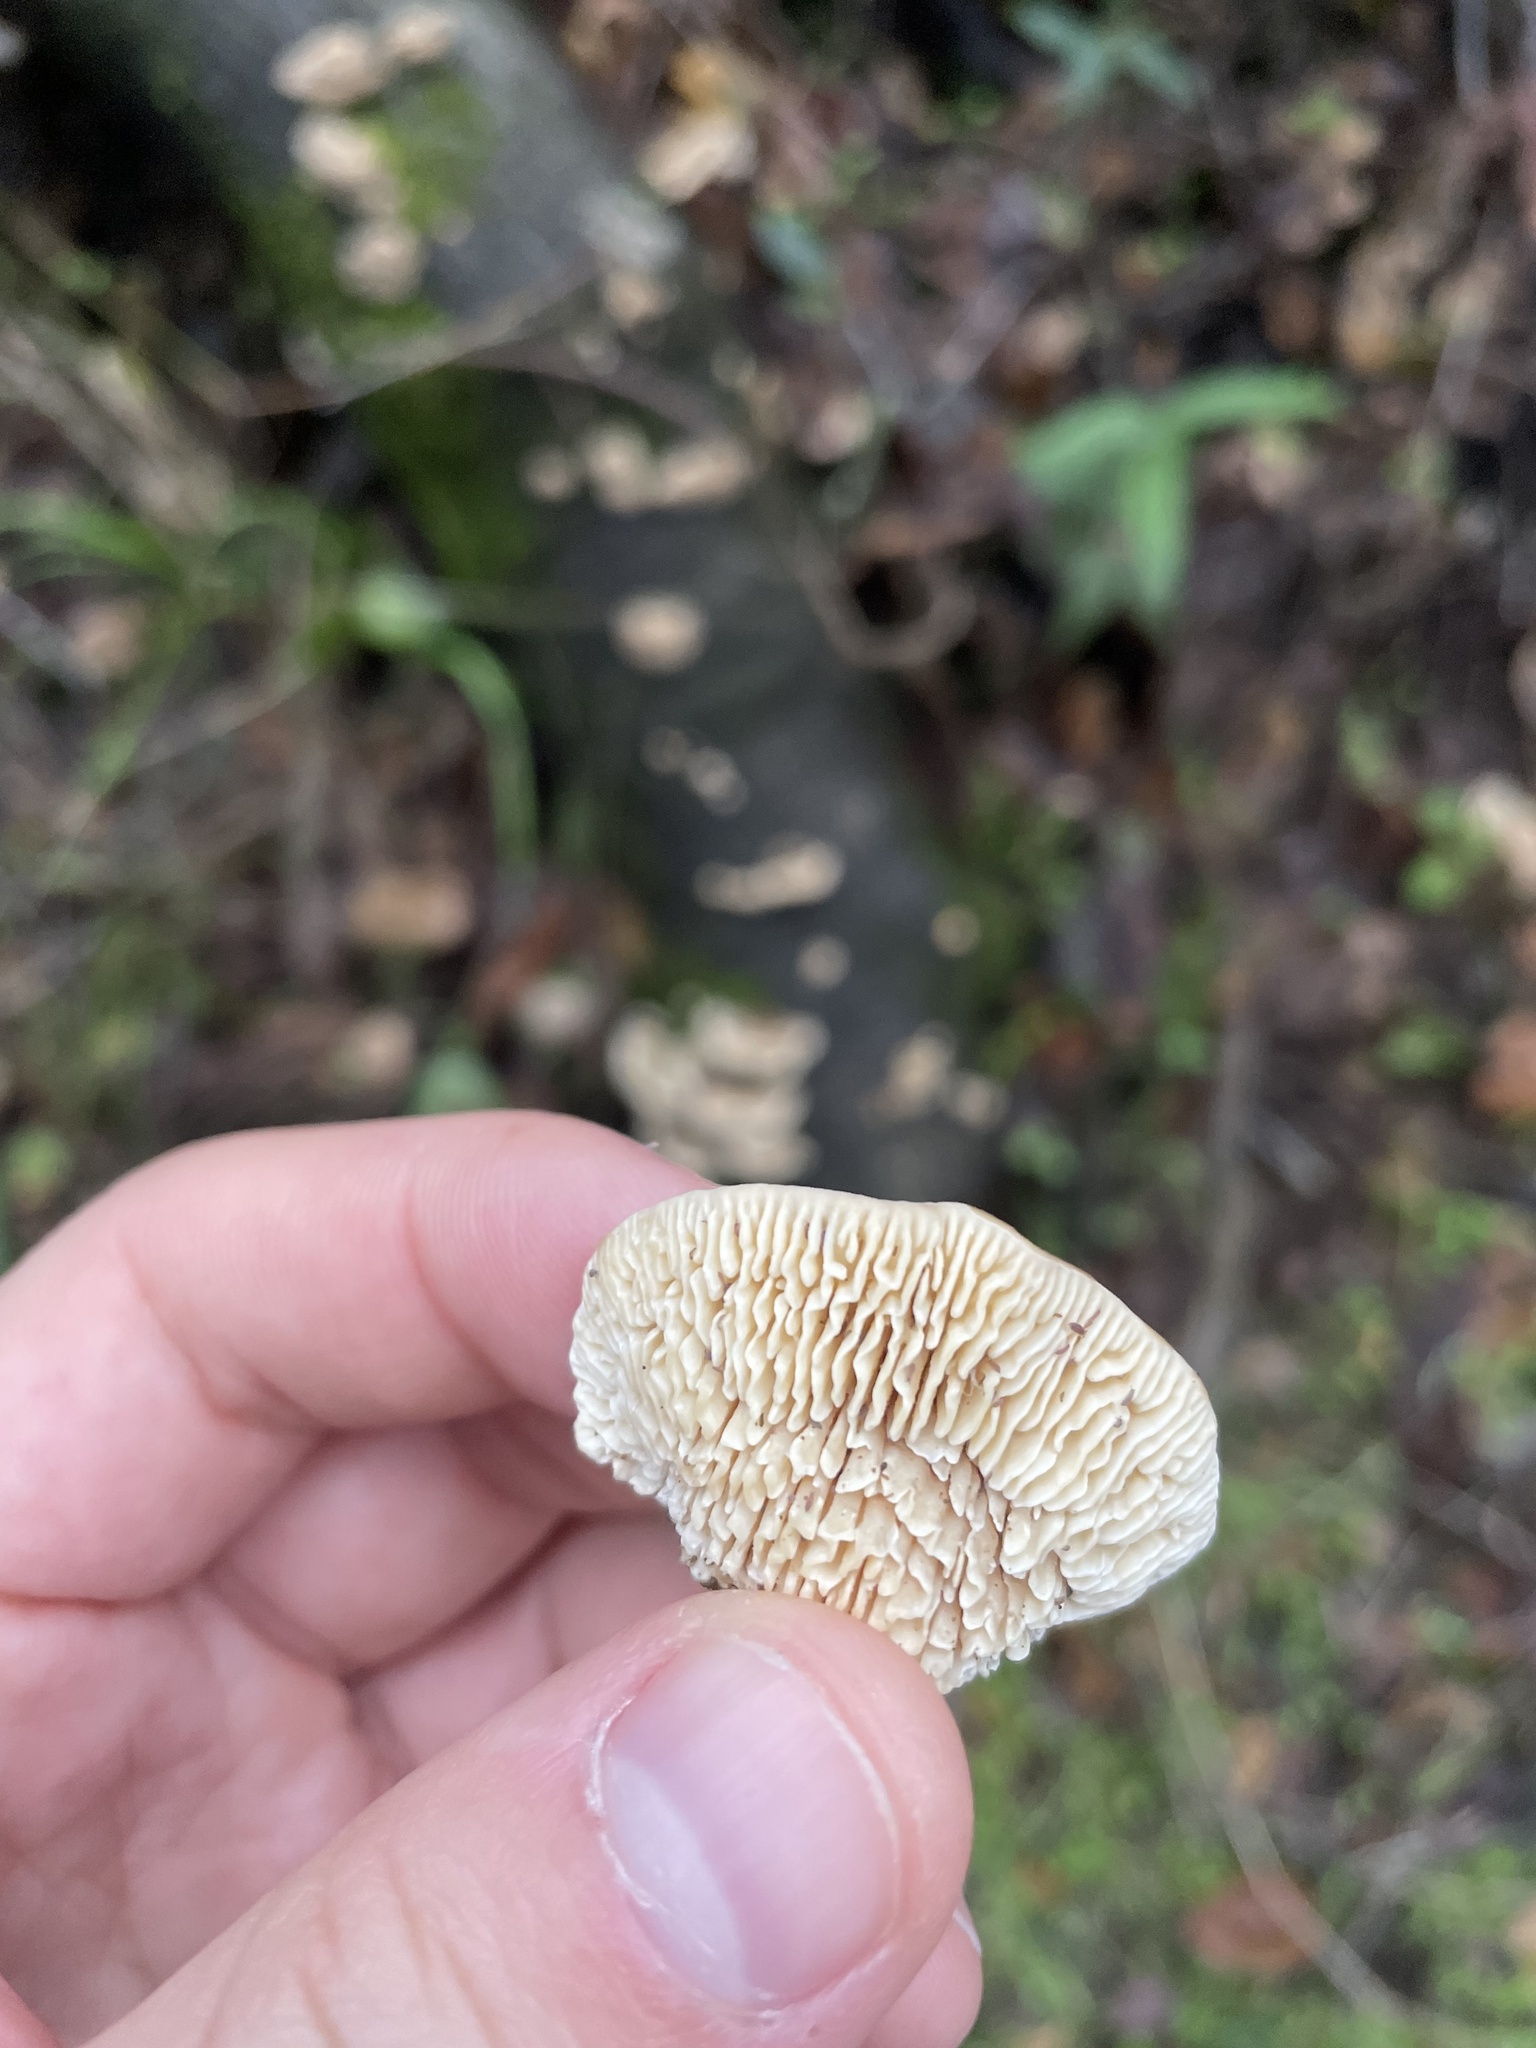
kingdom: Fungi
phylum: Basidiomycota
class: Agaricomycetes
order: Polyporales
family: Polyporaceae
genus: Lenzites
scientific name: Lenzites betulinus
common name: Birch mazegill
